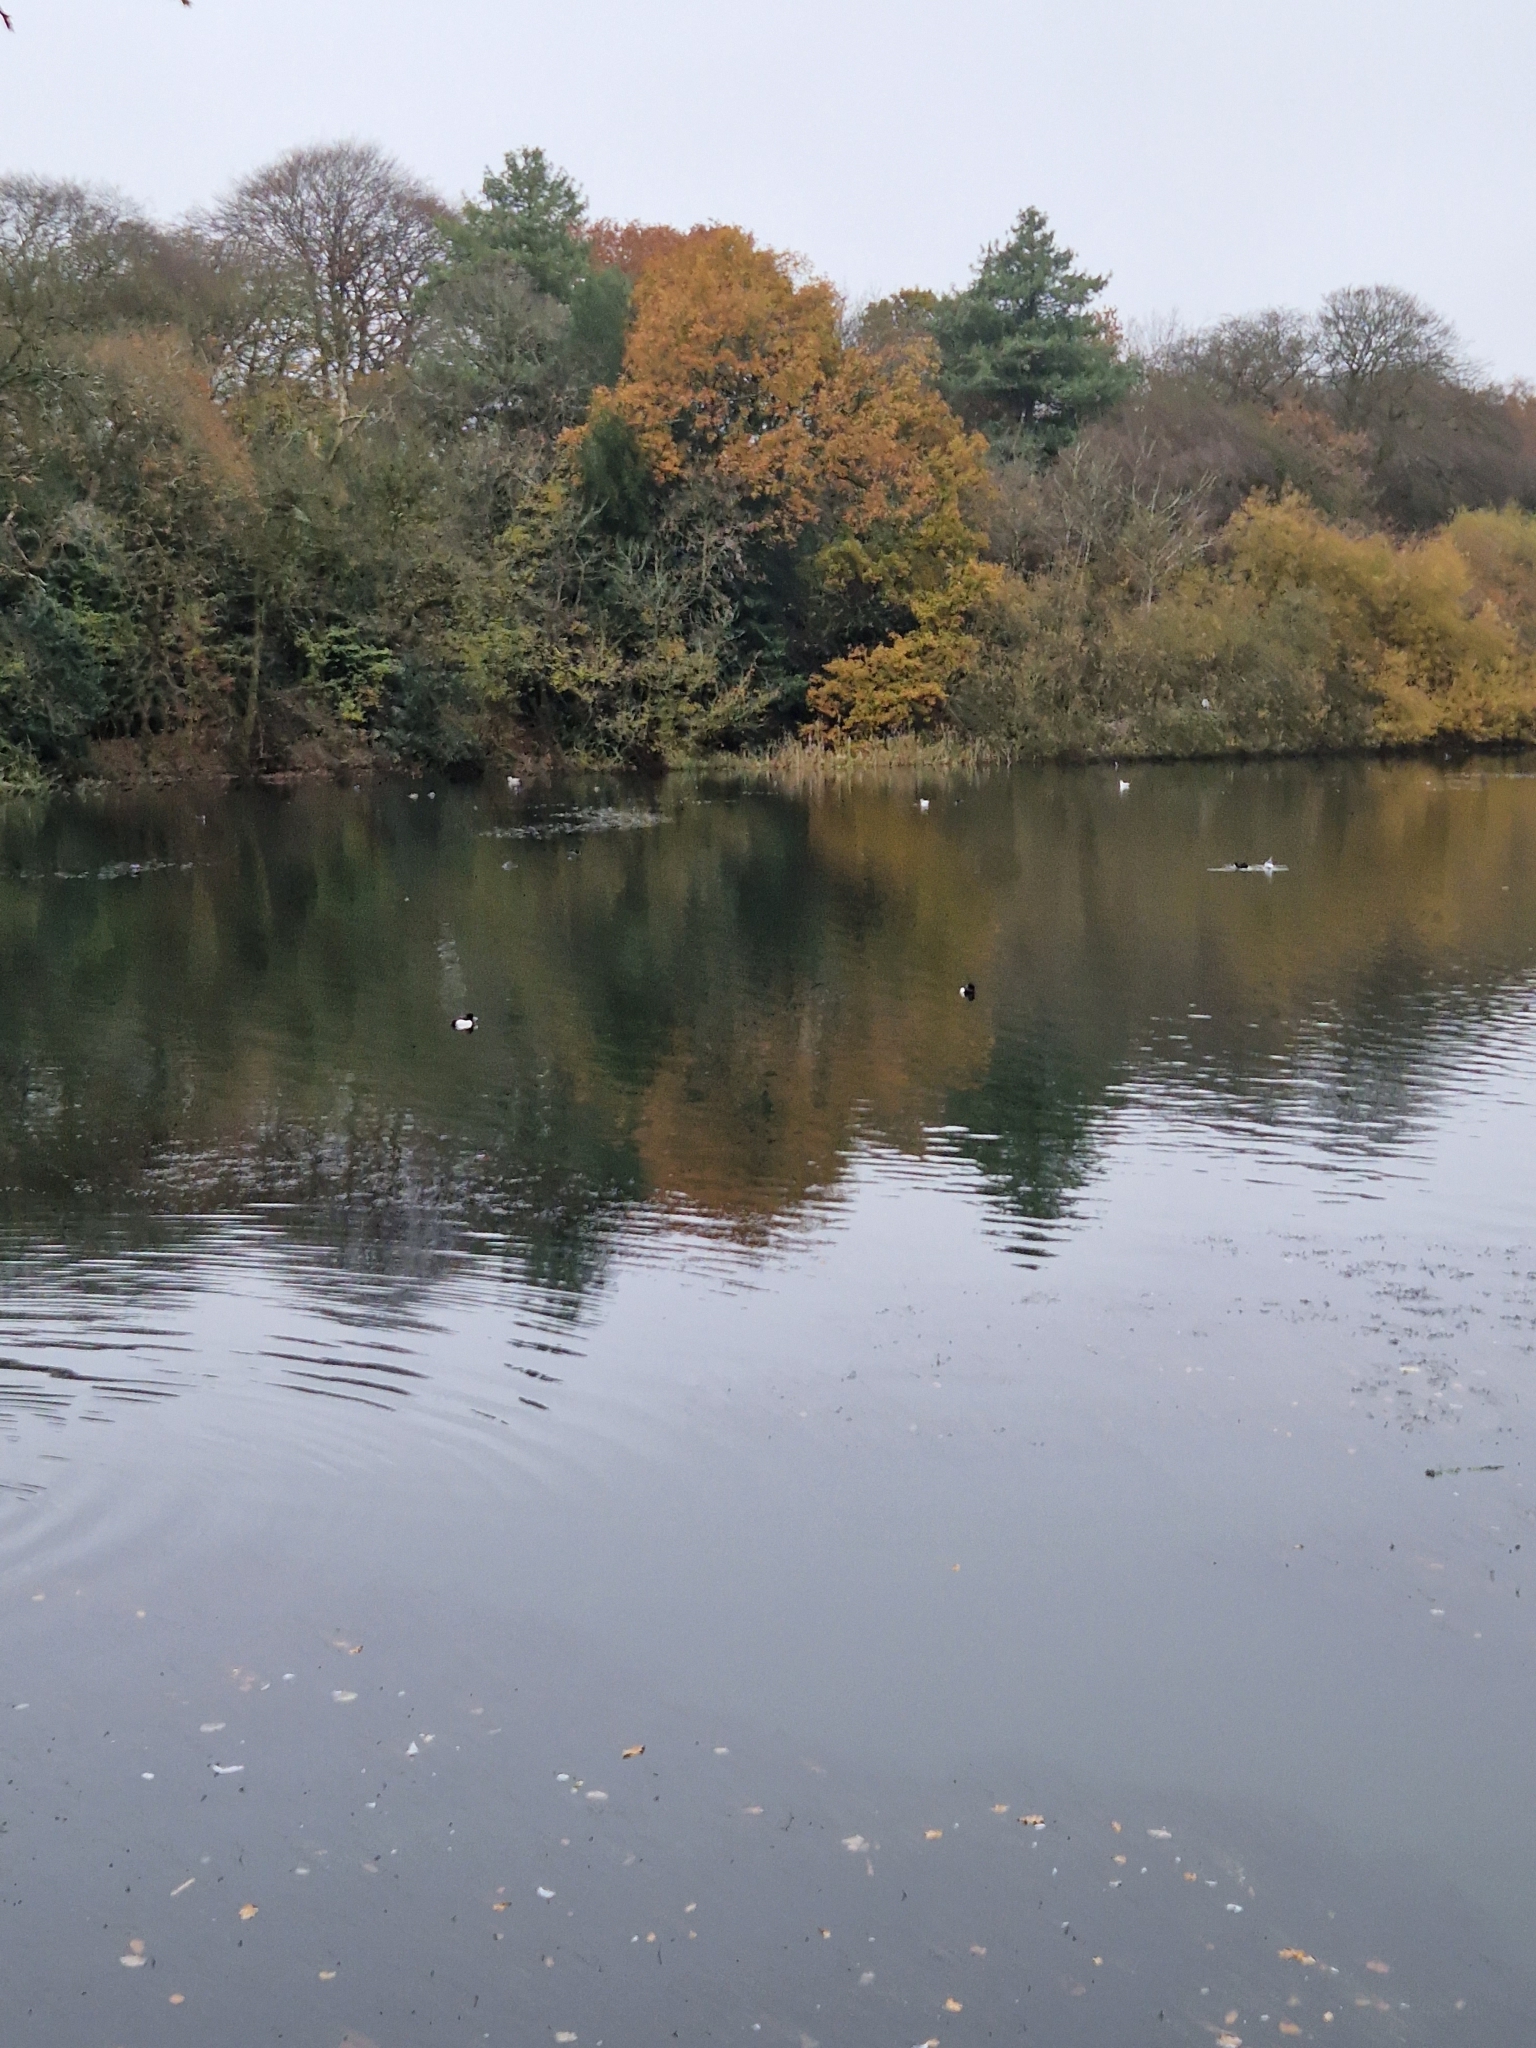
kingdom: Animalia
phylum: Chordata
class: Aves
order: Anseriformes
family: Anatidae
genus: Aythya
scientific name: Aythya fuligula
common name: Tufted duck
